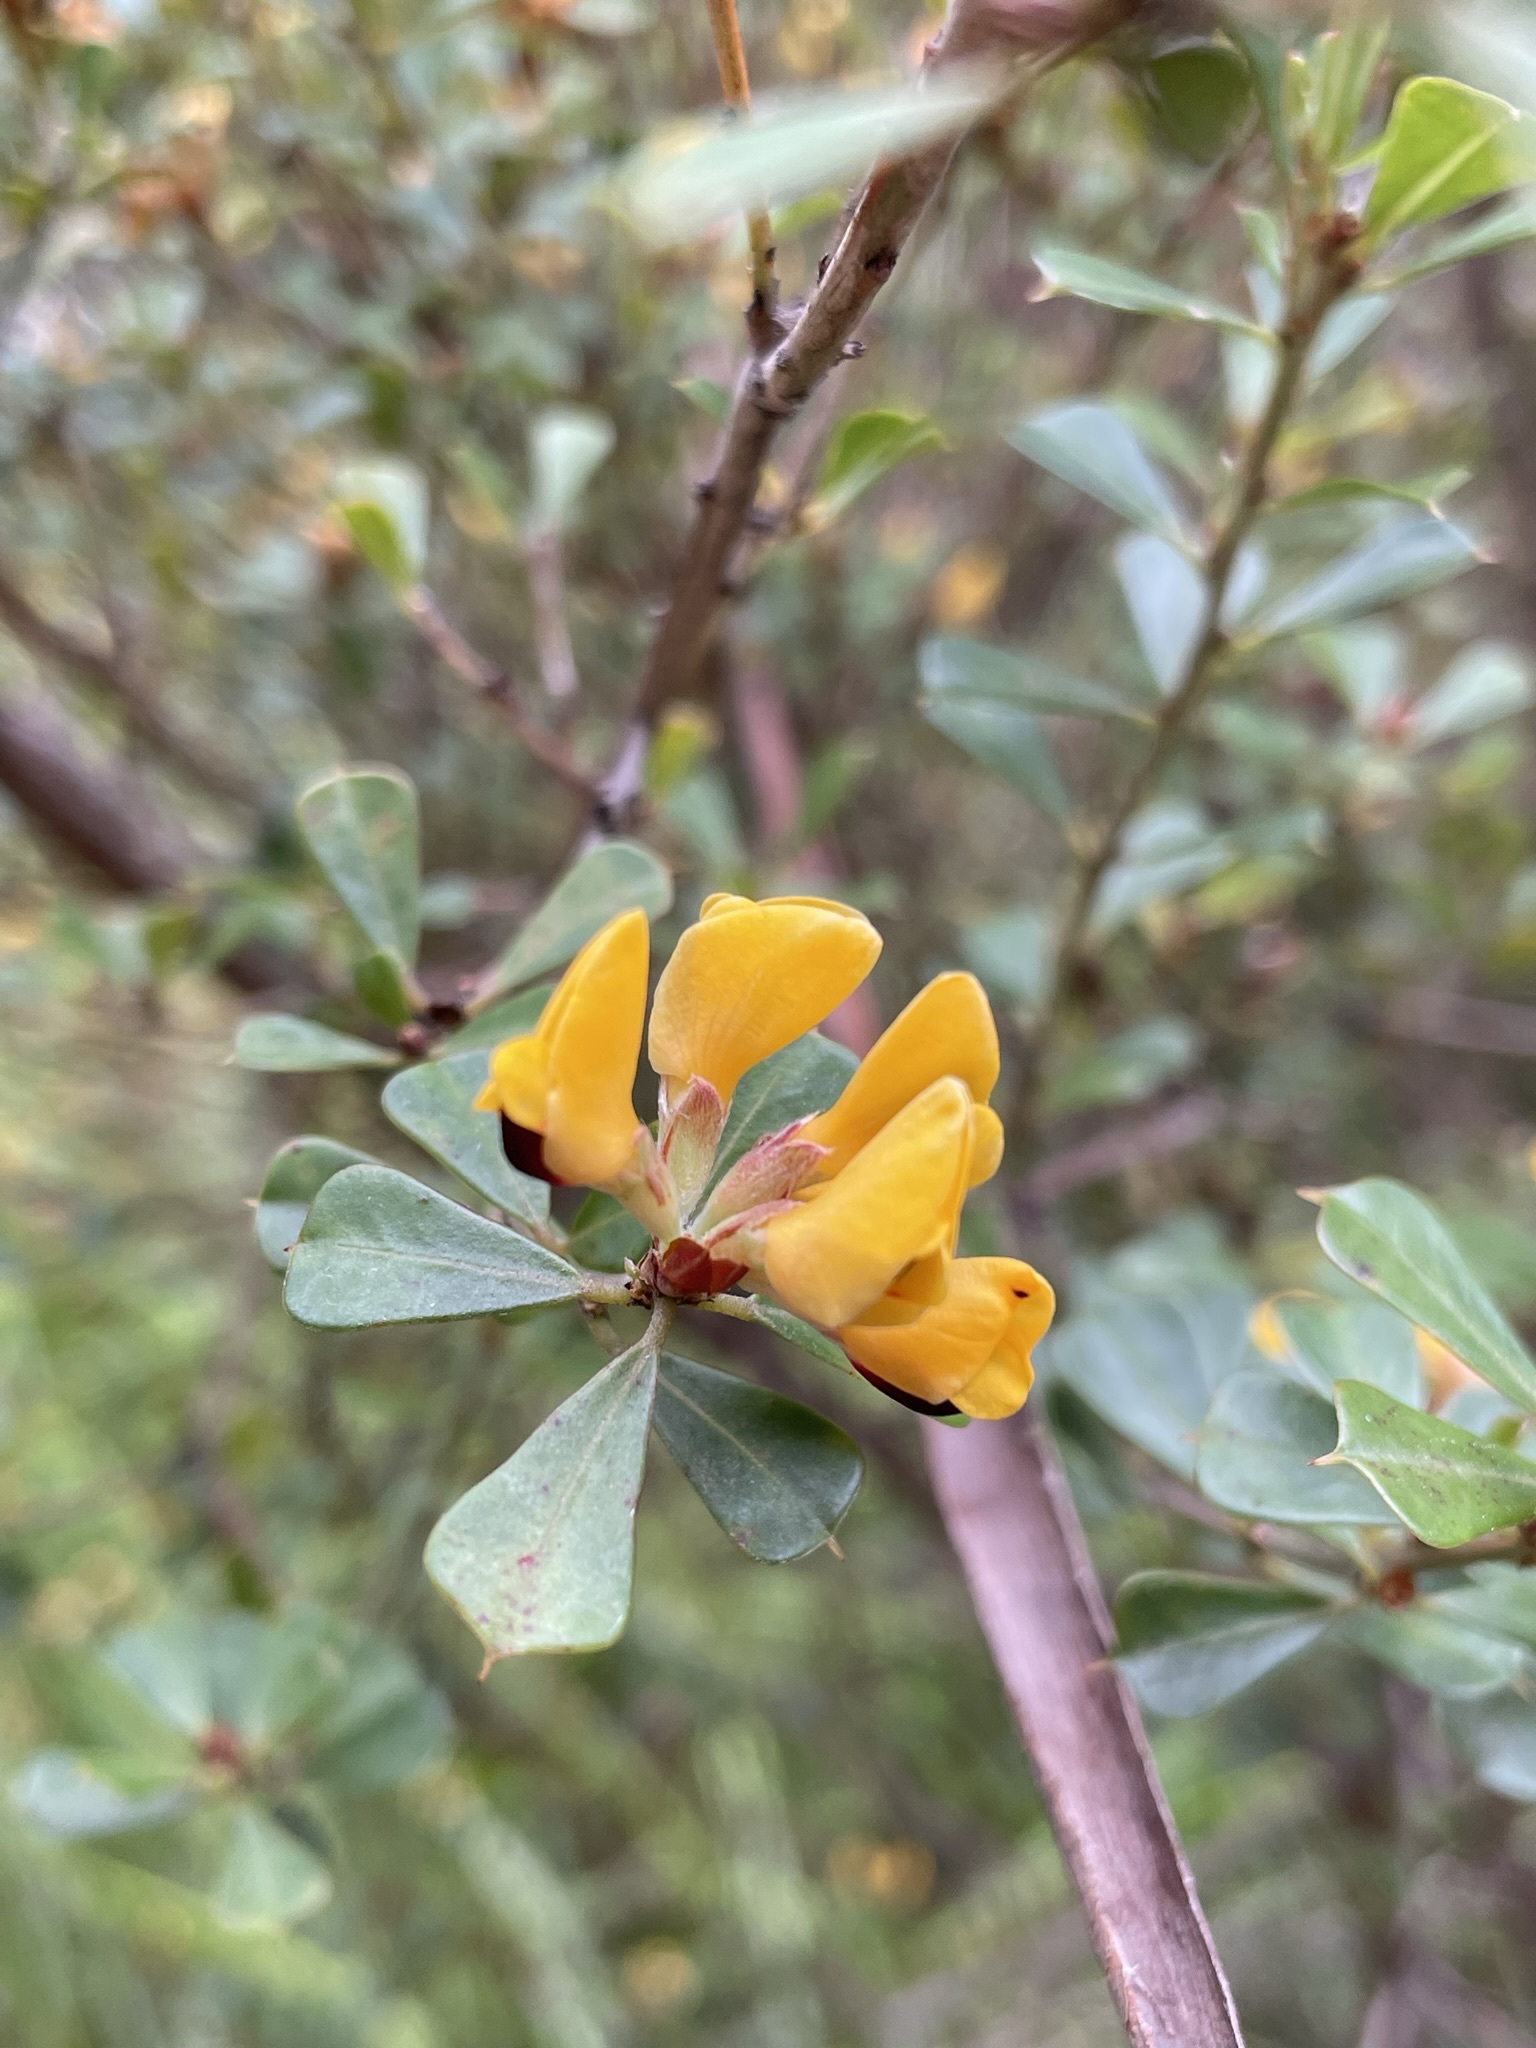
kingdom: Plantae
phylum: Tracheophyta
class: Magnoliopsida
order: Fabales
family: Fabaceae
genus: Pultenaea
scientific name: Pultenaea daphnoides
